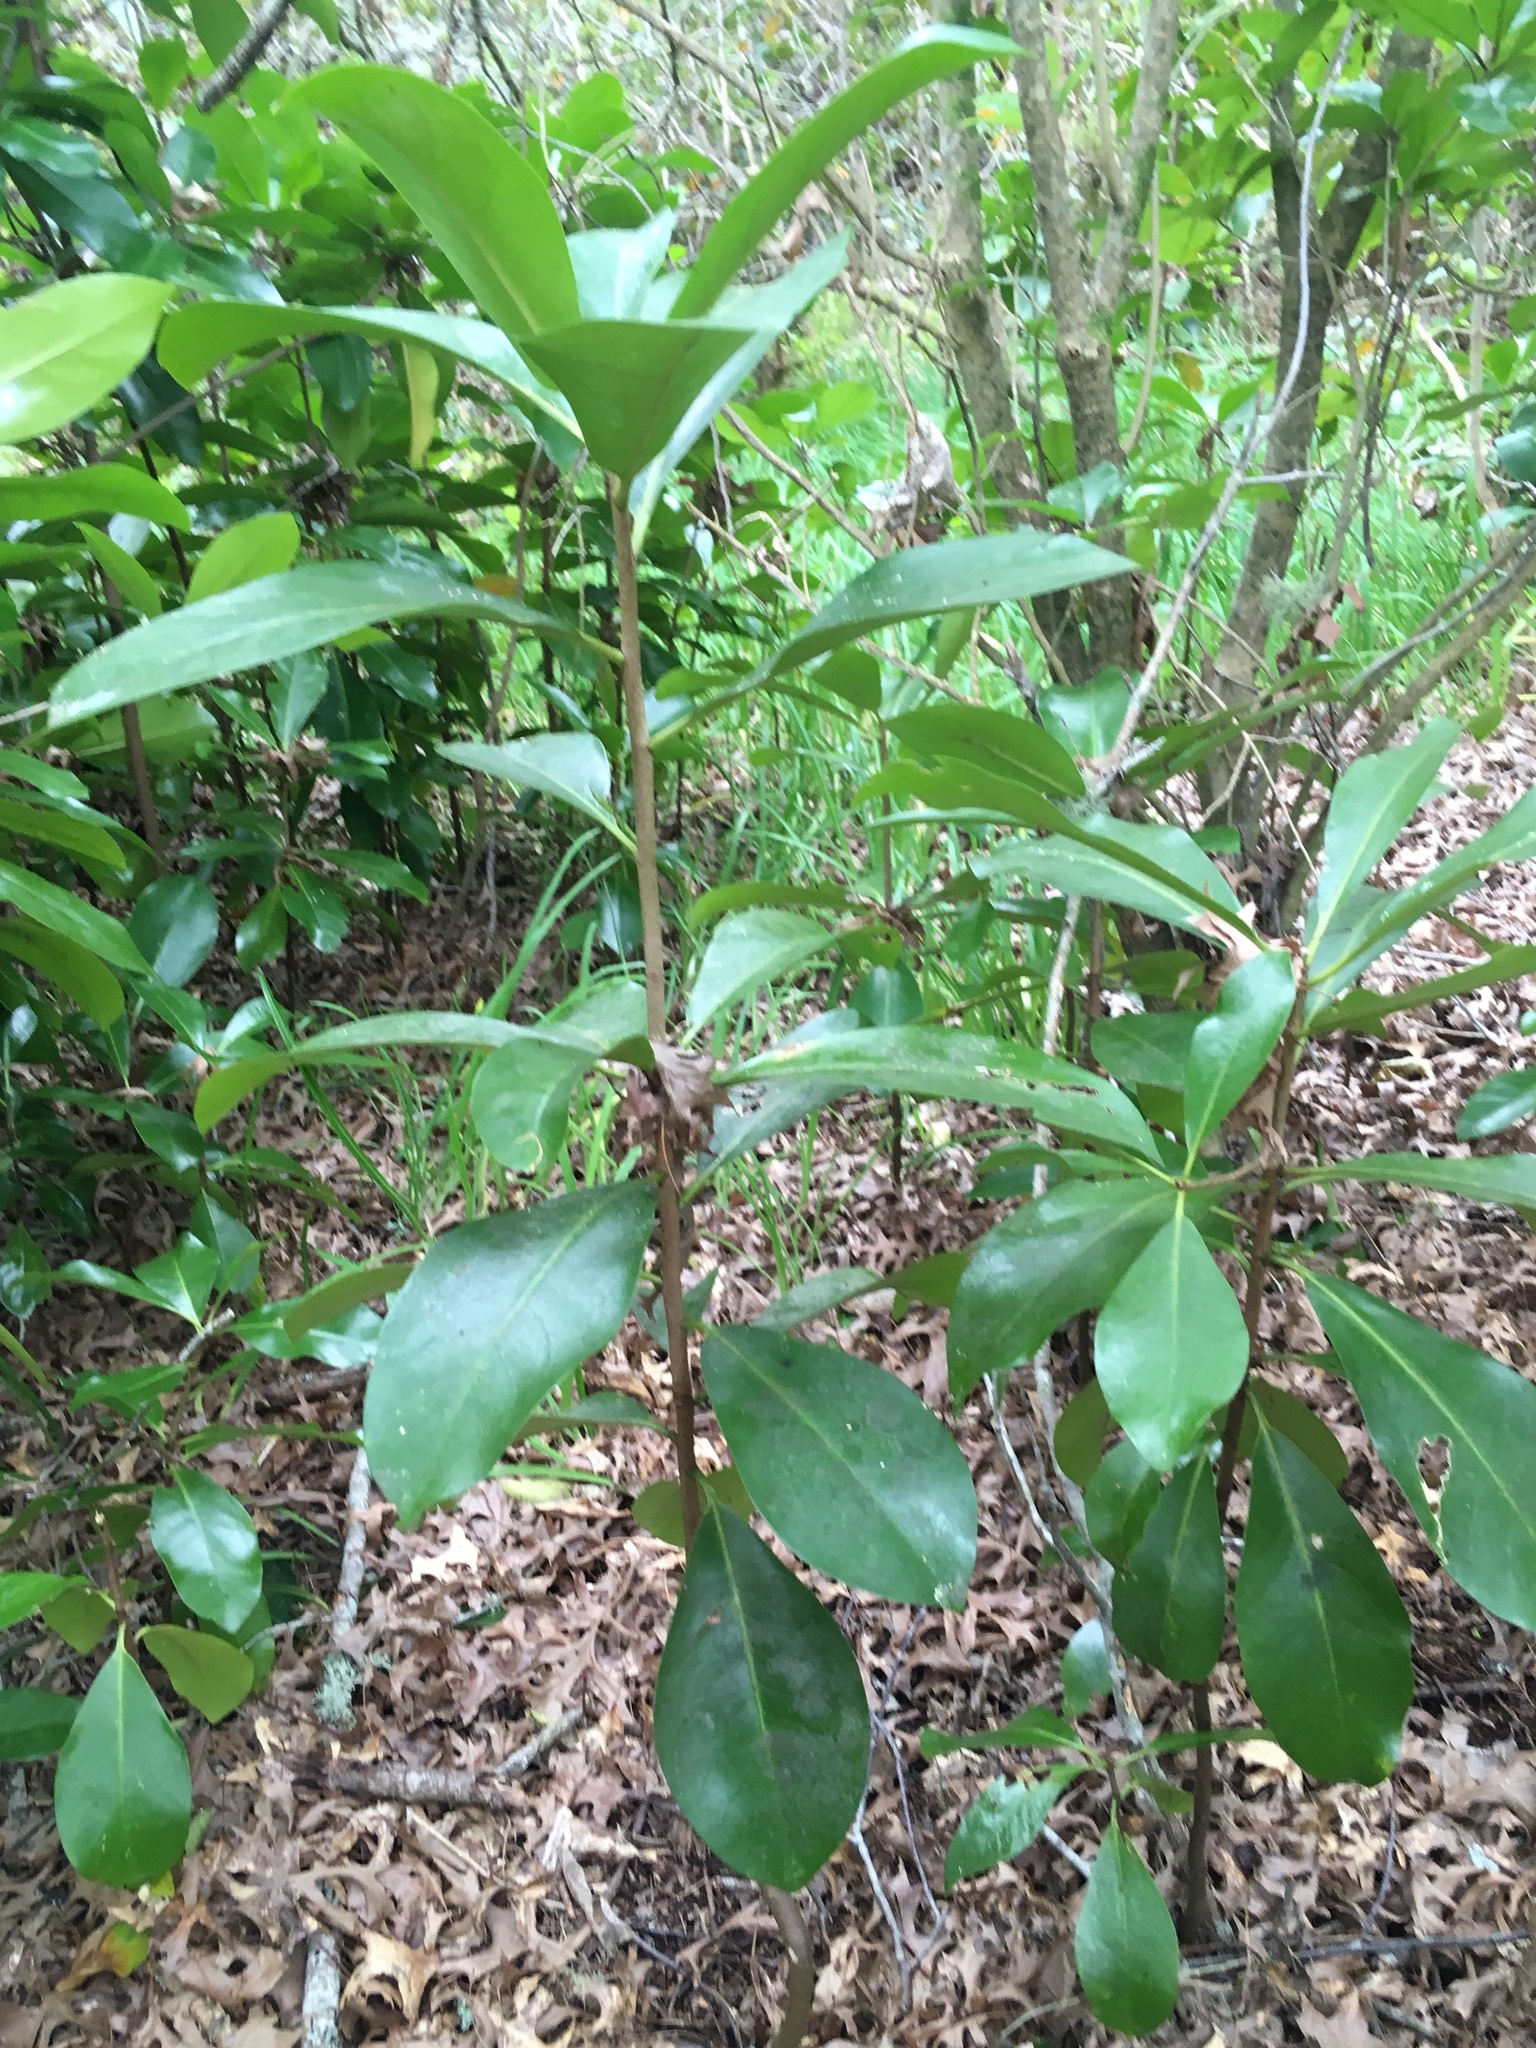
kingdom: Plantae
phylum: Tracheophyta
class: Magnoliopsida
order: Cucurbitales
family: Corynocarpaceae
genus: Corynocarpus
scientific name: Corynocarpus laevigatus
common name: New zealand laurel
